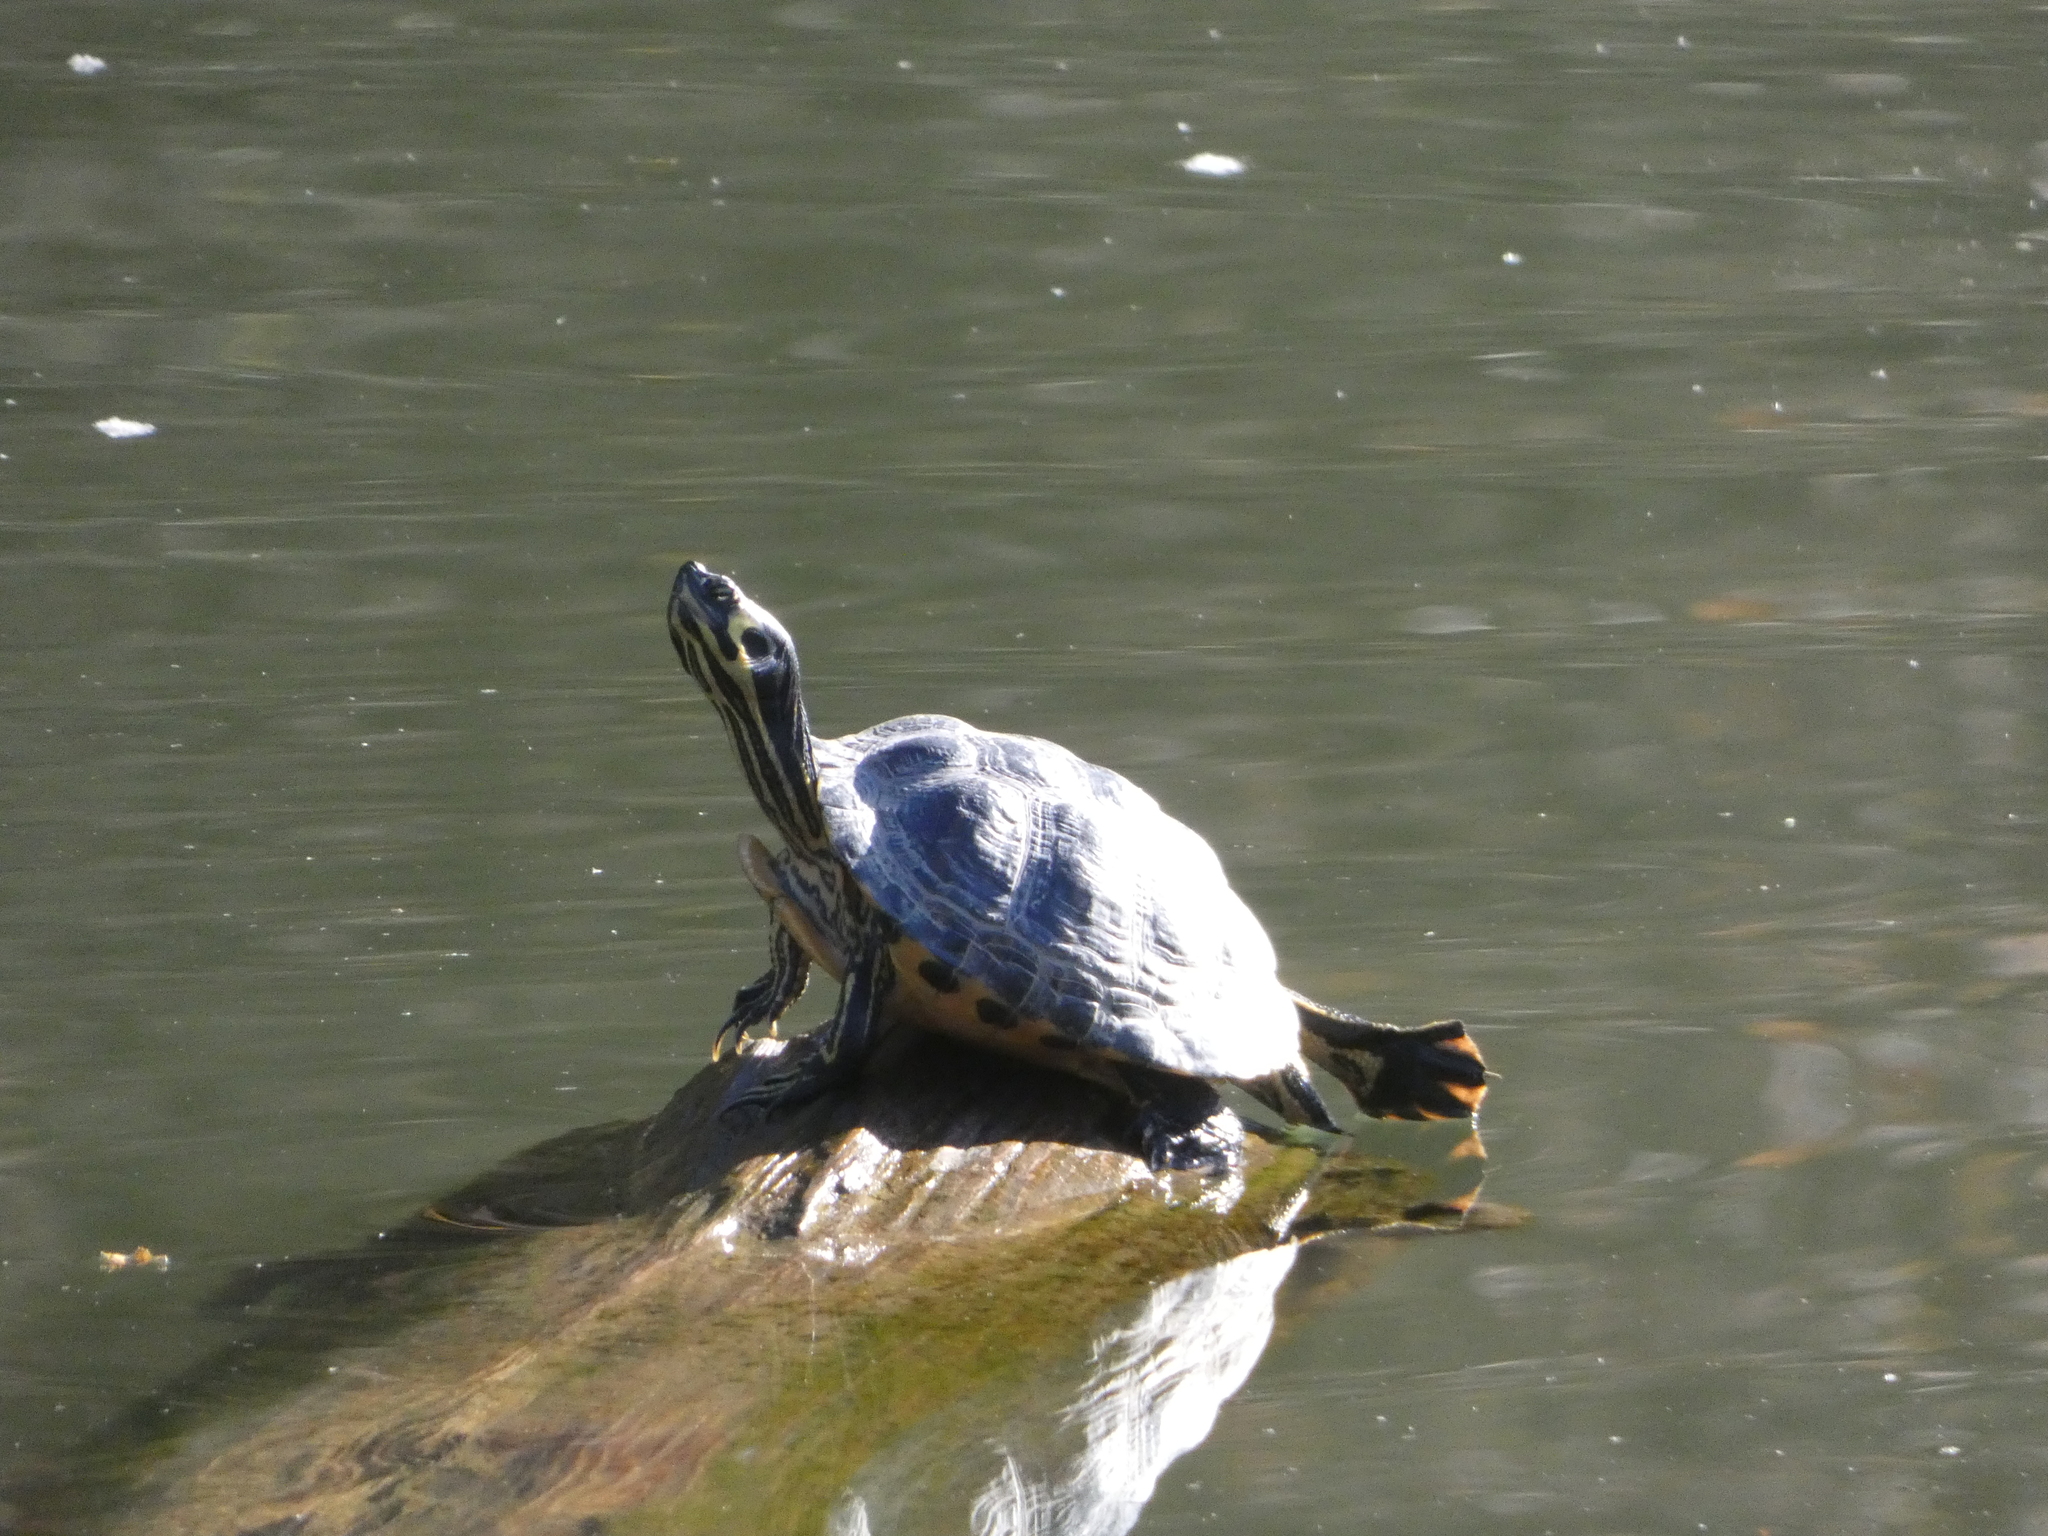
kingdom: Animalia
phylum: Chordata
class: Testudines
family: Emydidae
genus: Trachemys
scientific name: Trachemys scripta
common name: Slider
